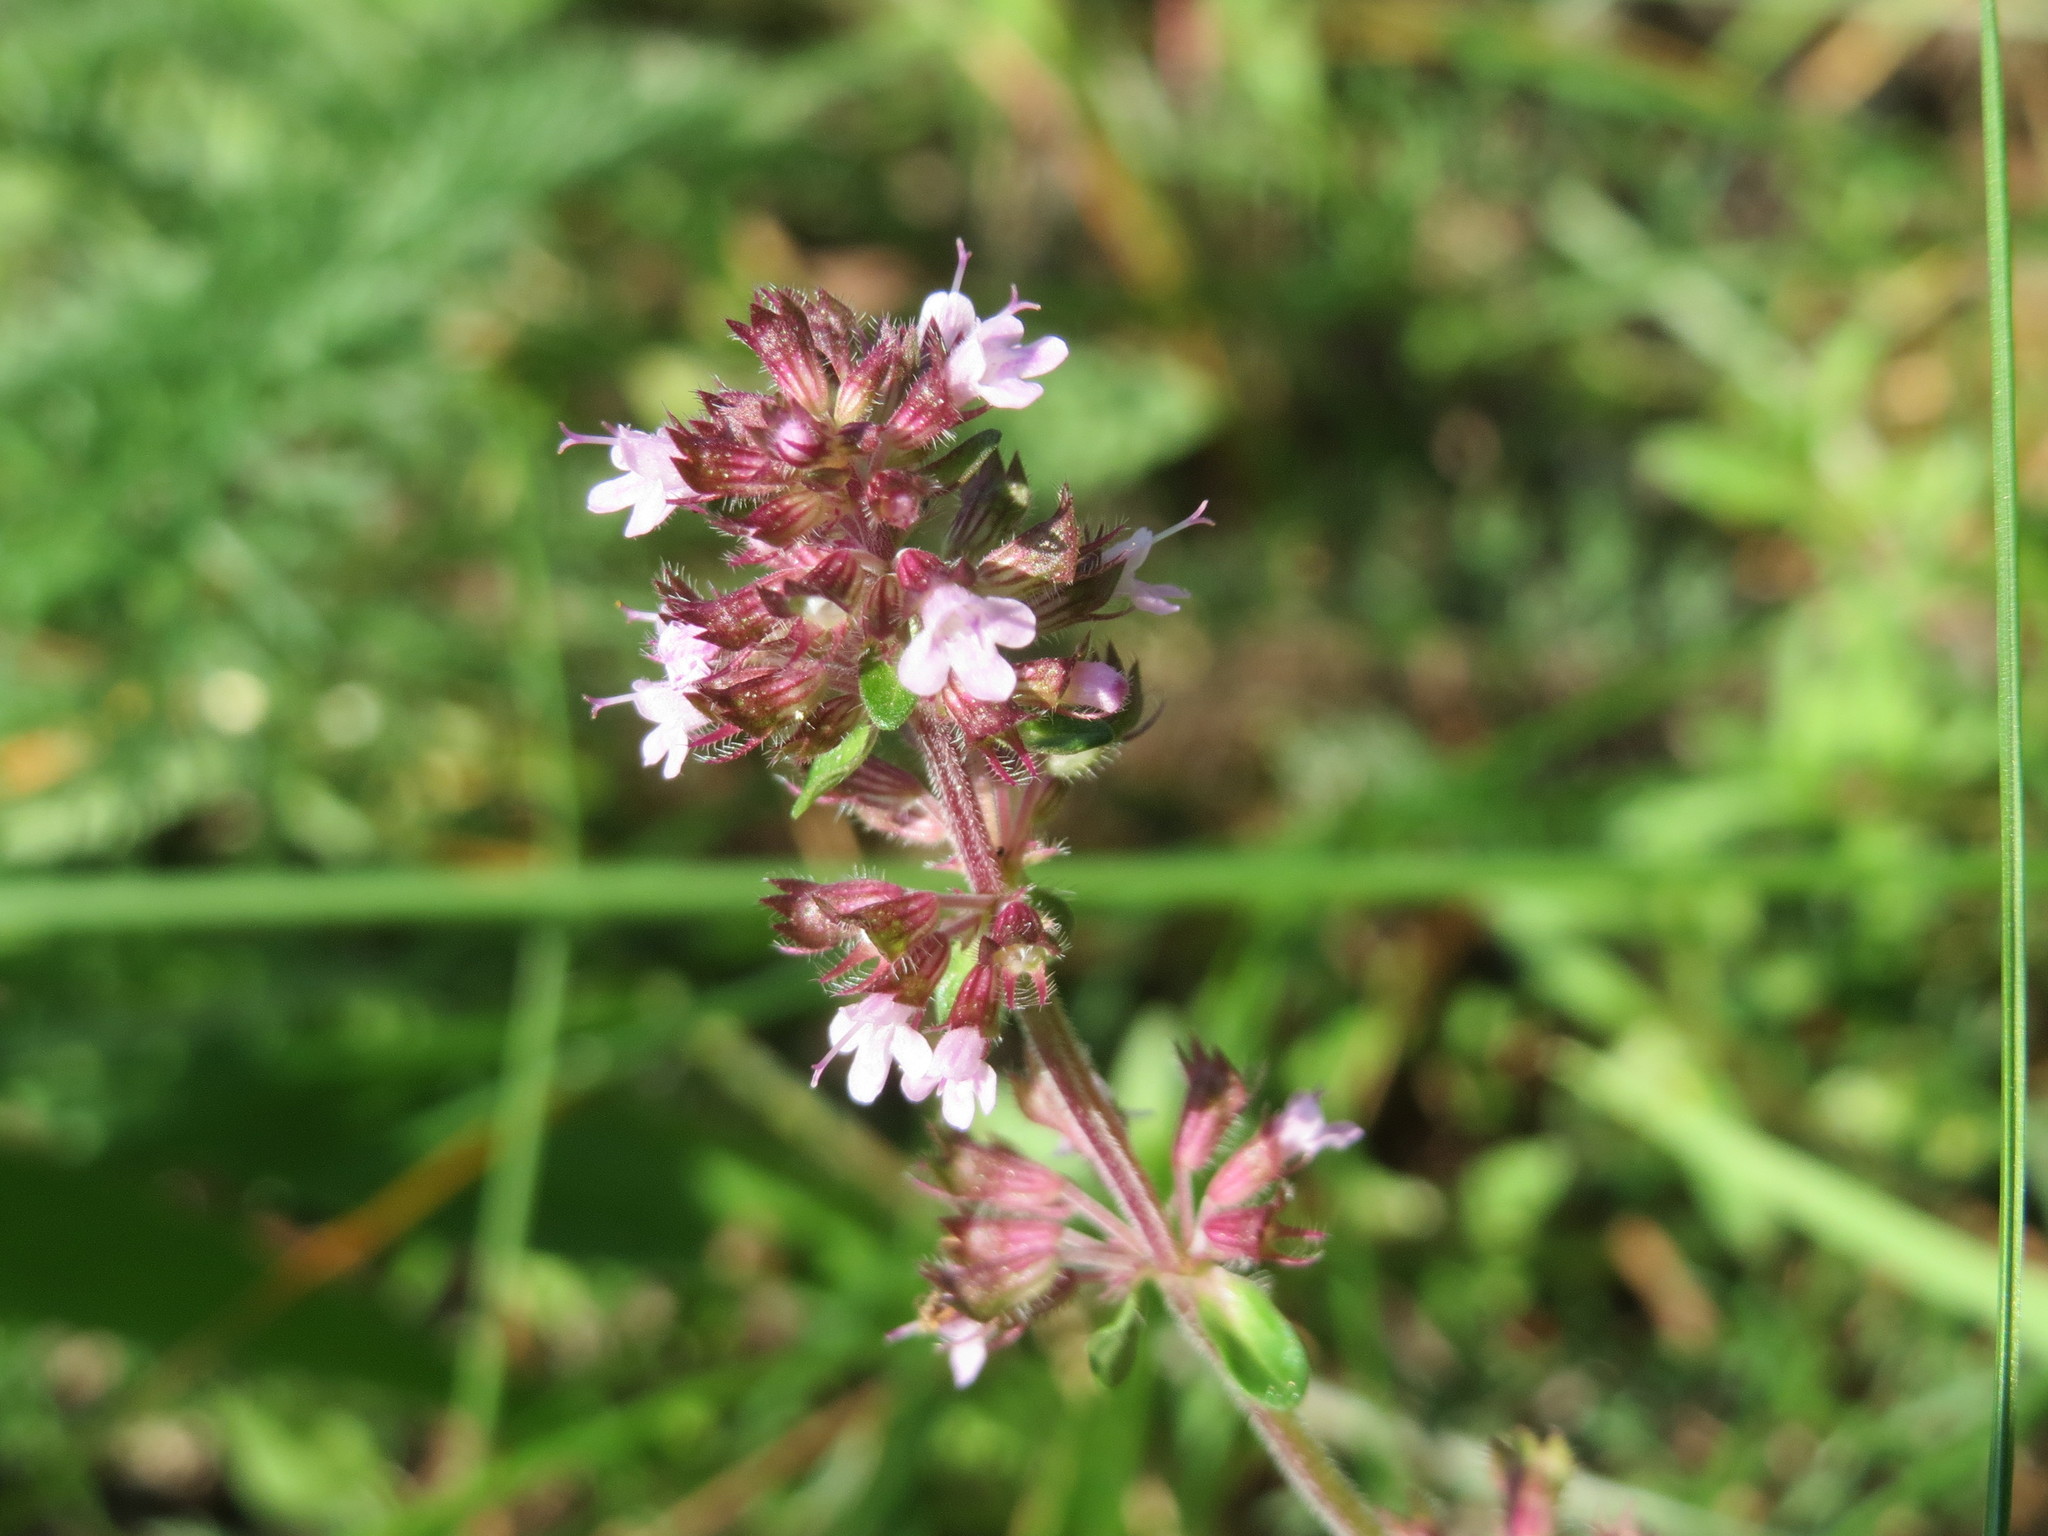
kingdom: Plantae
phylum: Tracheophyta
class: Magnoliopsida
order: Lamiales
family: Lamiaceae
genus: Thymus
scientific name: Thymus pulegioides
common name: Large thyme
